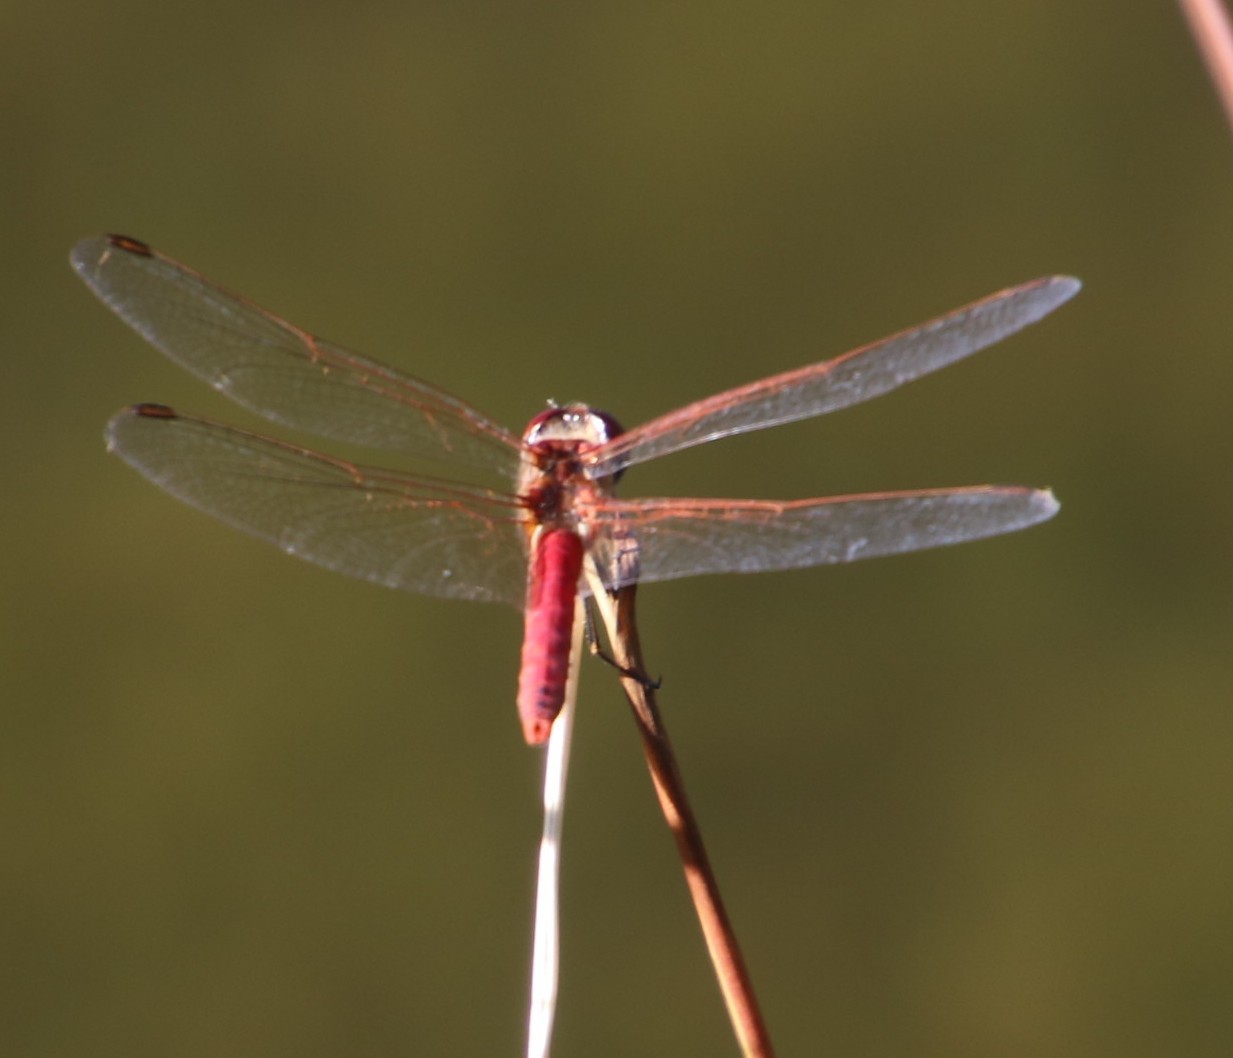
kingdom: Animalia
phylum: Arthropoda
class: Insecta
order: Odonata
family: Libellulidae
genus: Sympetrum
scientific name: Sympetrum fonscolombii
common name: Red-veined darter
